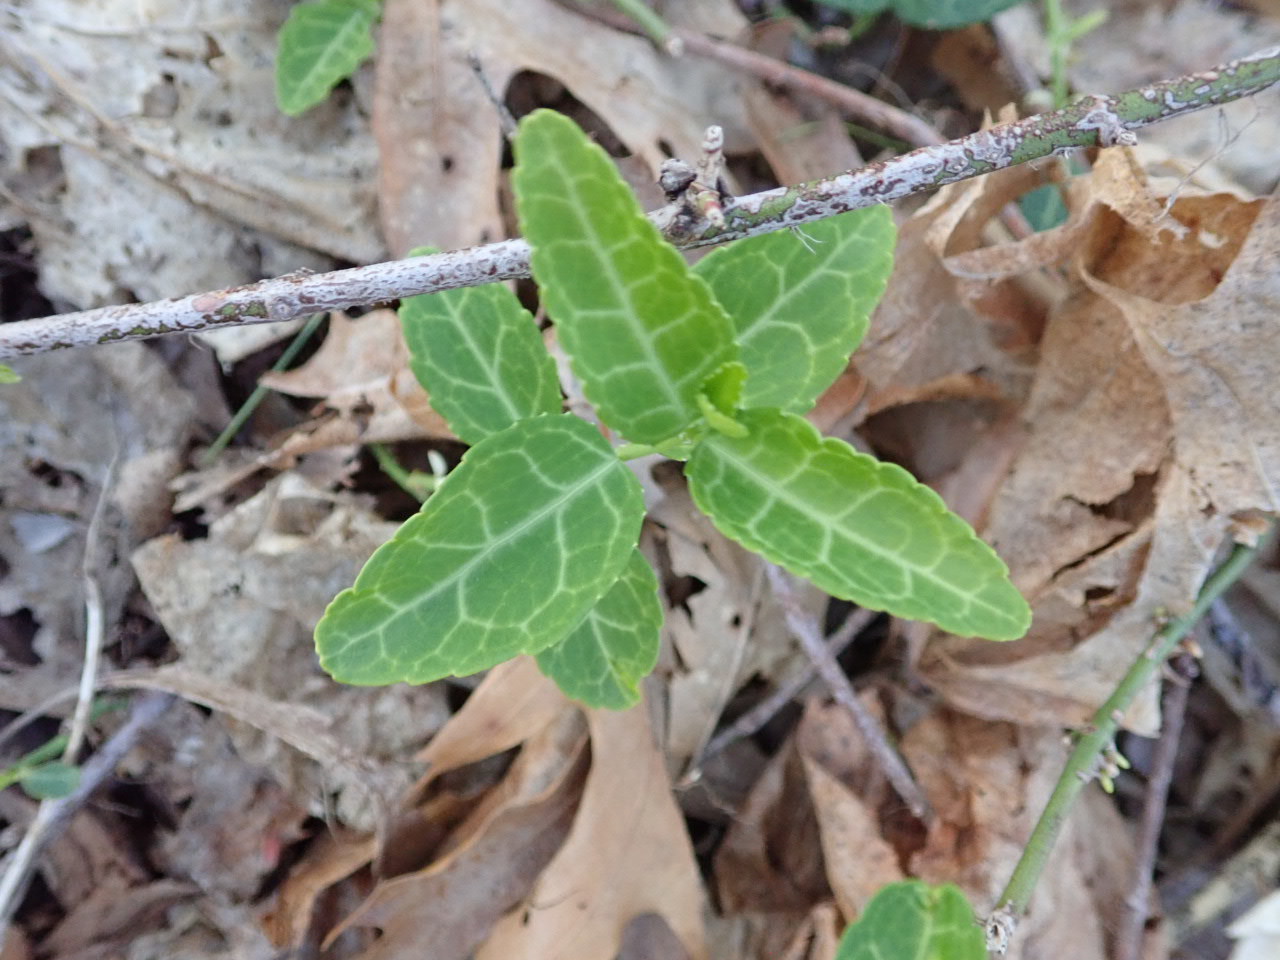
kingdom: Plantae
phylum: Tracheophyta
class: Magnoliopsida
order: Celastrales
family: Celastraceae
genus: Euonymus
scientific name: Euonymus fortunei
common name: Climbing euonymus
